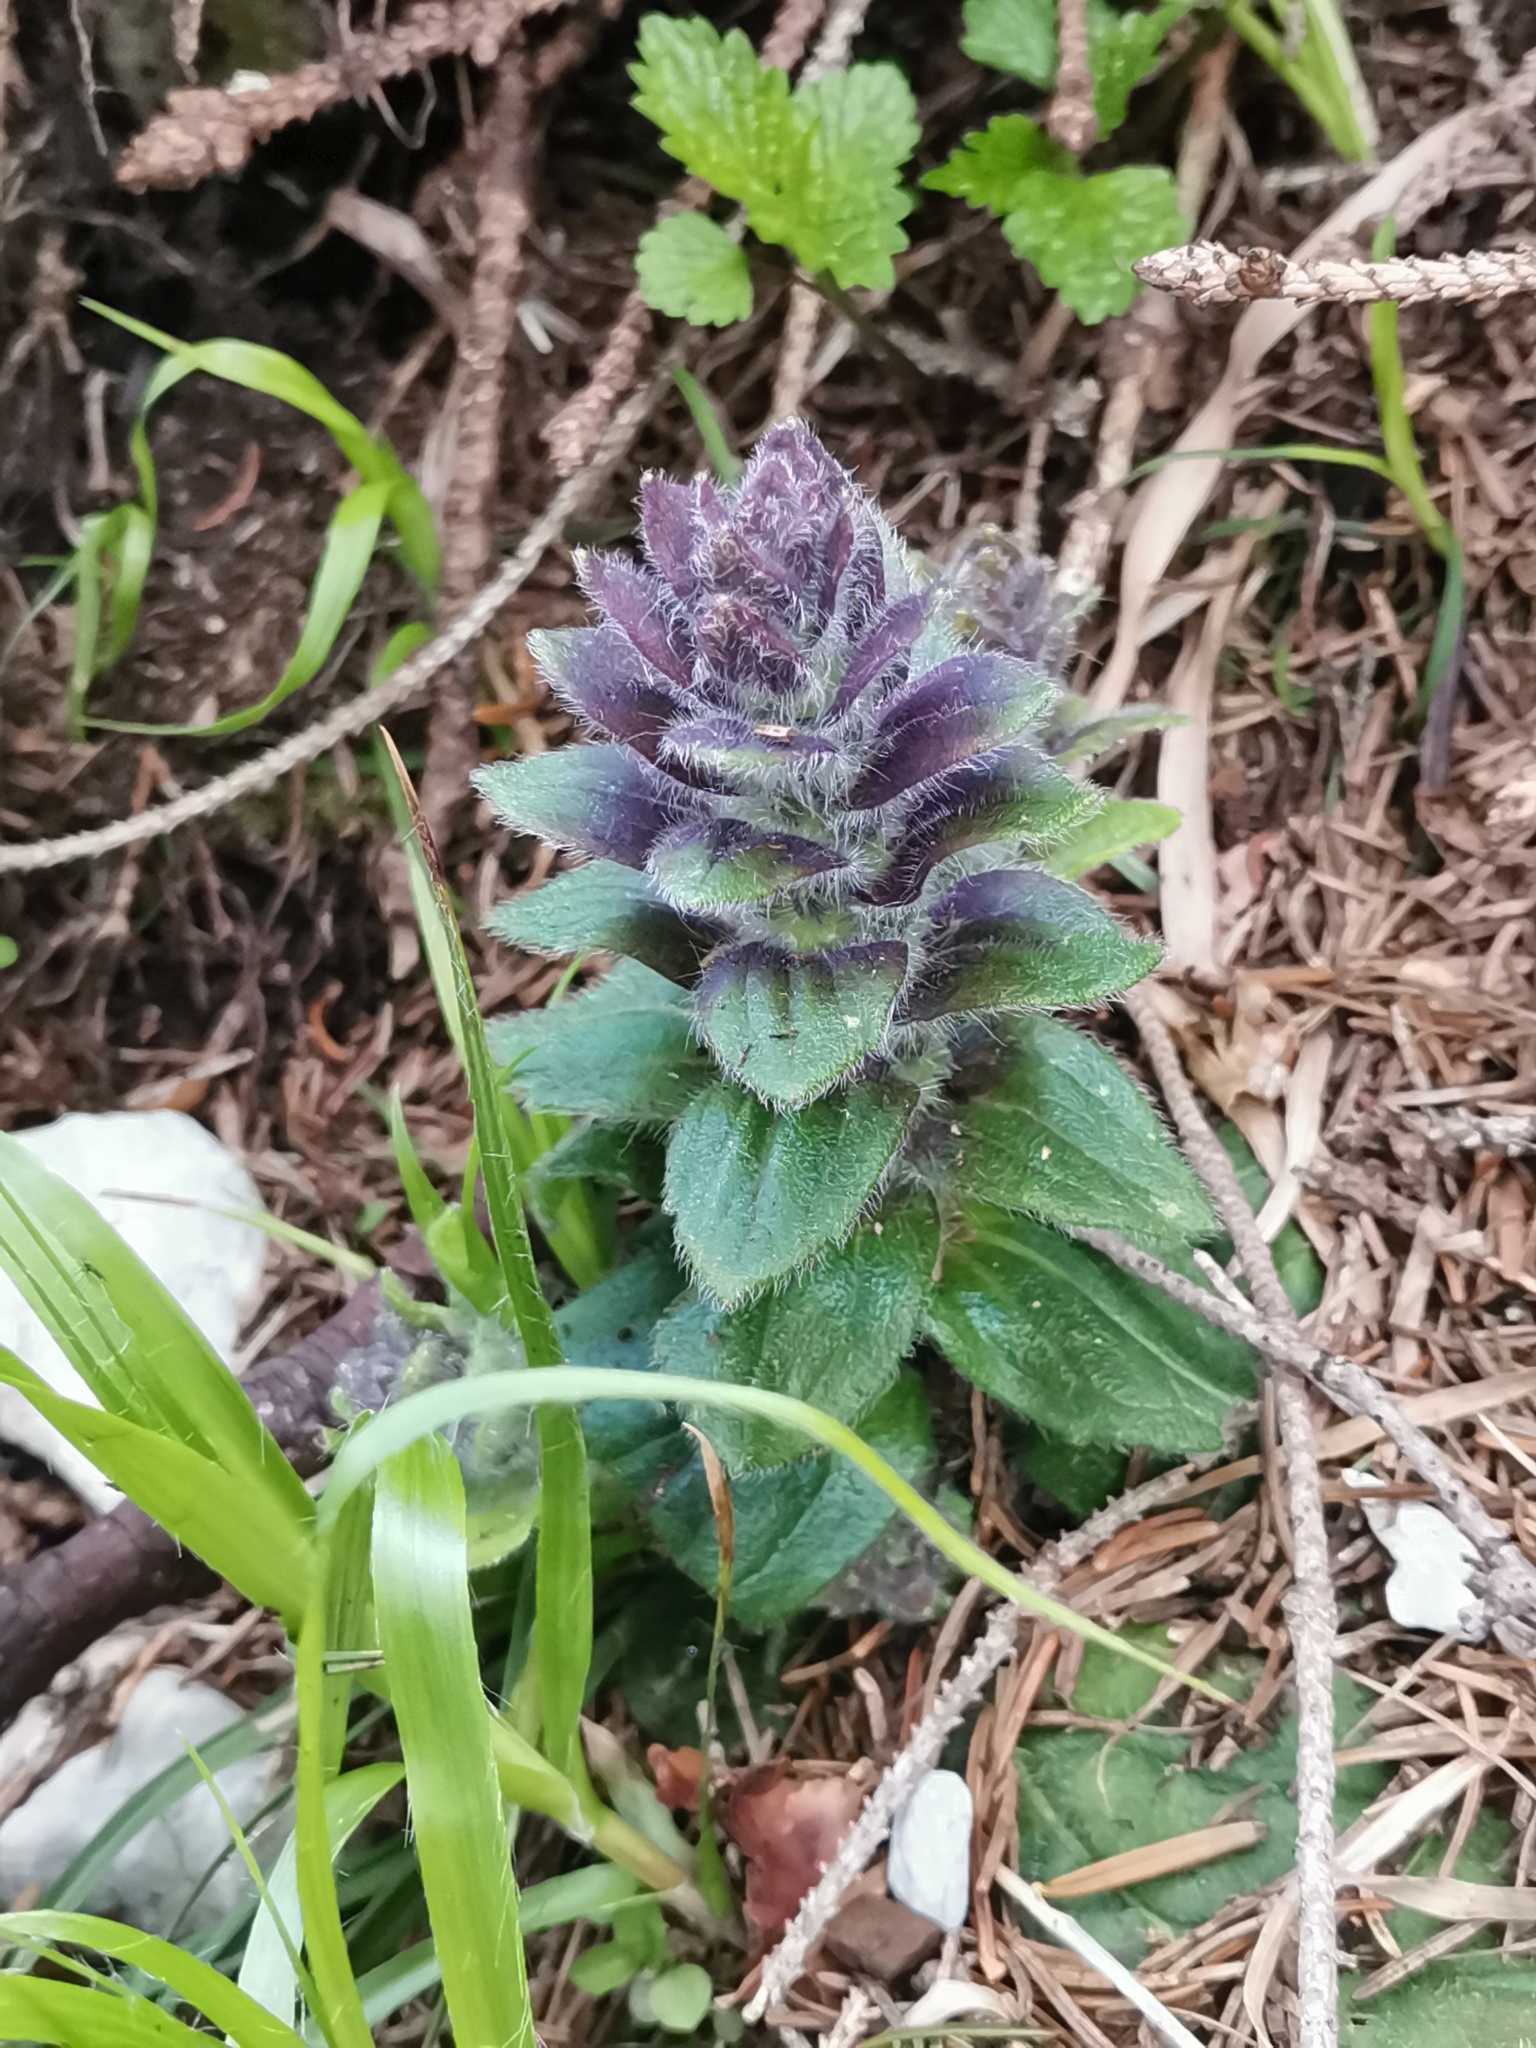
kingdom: Plantae
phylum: Tracheophyta
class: Magnoliopsida
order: Lamiales
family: Lamiaceae
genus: Ajuga
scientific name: Ajuga pyramidalis
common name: Pyramid bugle
